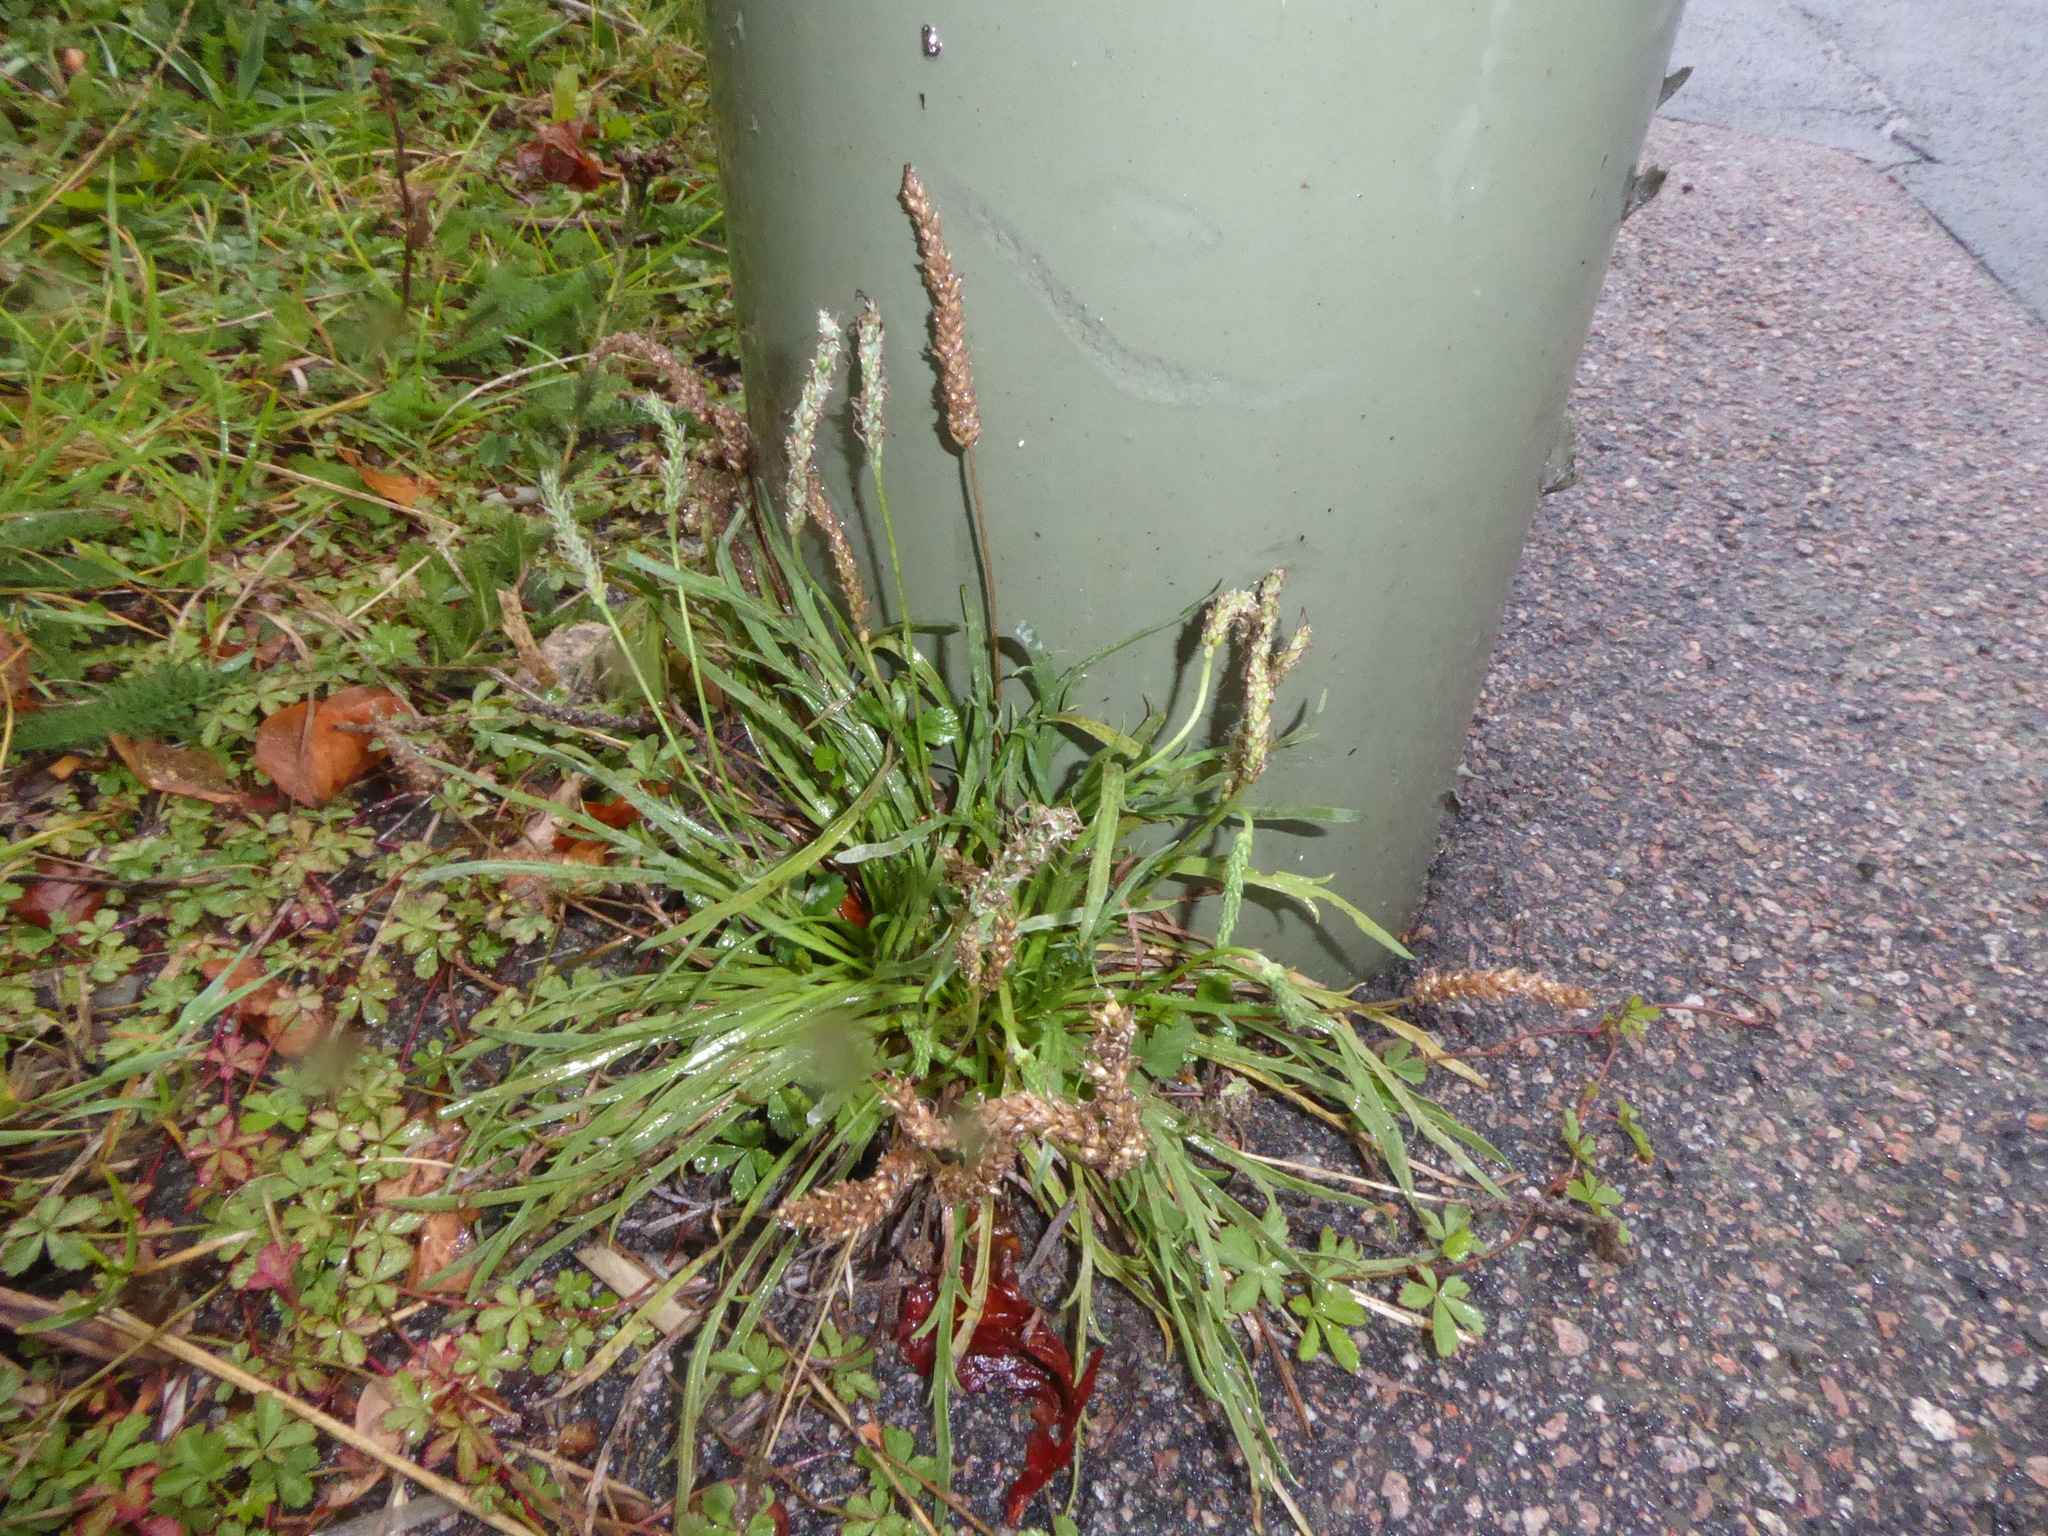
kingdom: Plantae
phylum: Tracheophyta
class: Magnoliopsida
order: Lamiales
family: Plantaginaceae
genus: Plantago
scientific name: Plantago coronopus
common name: Buck's-horn plantain
